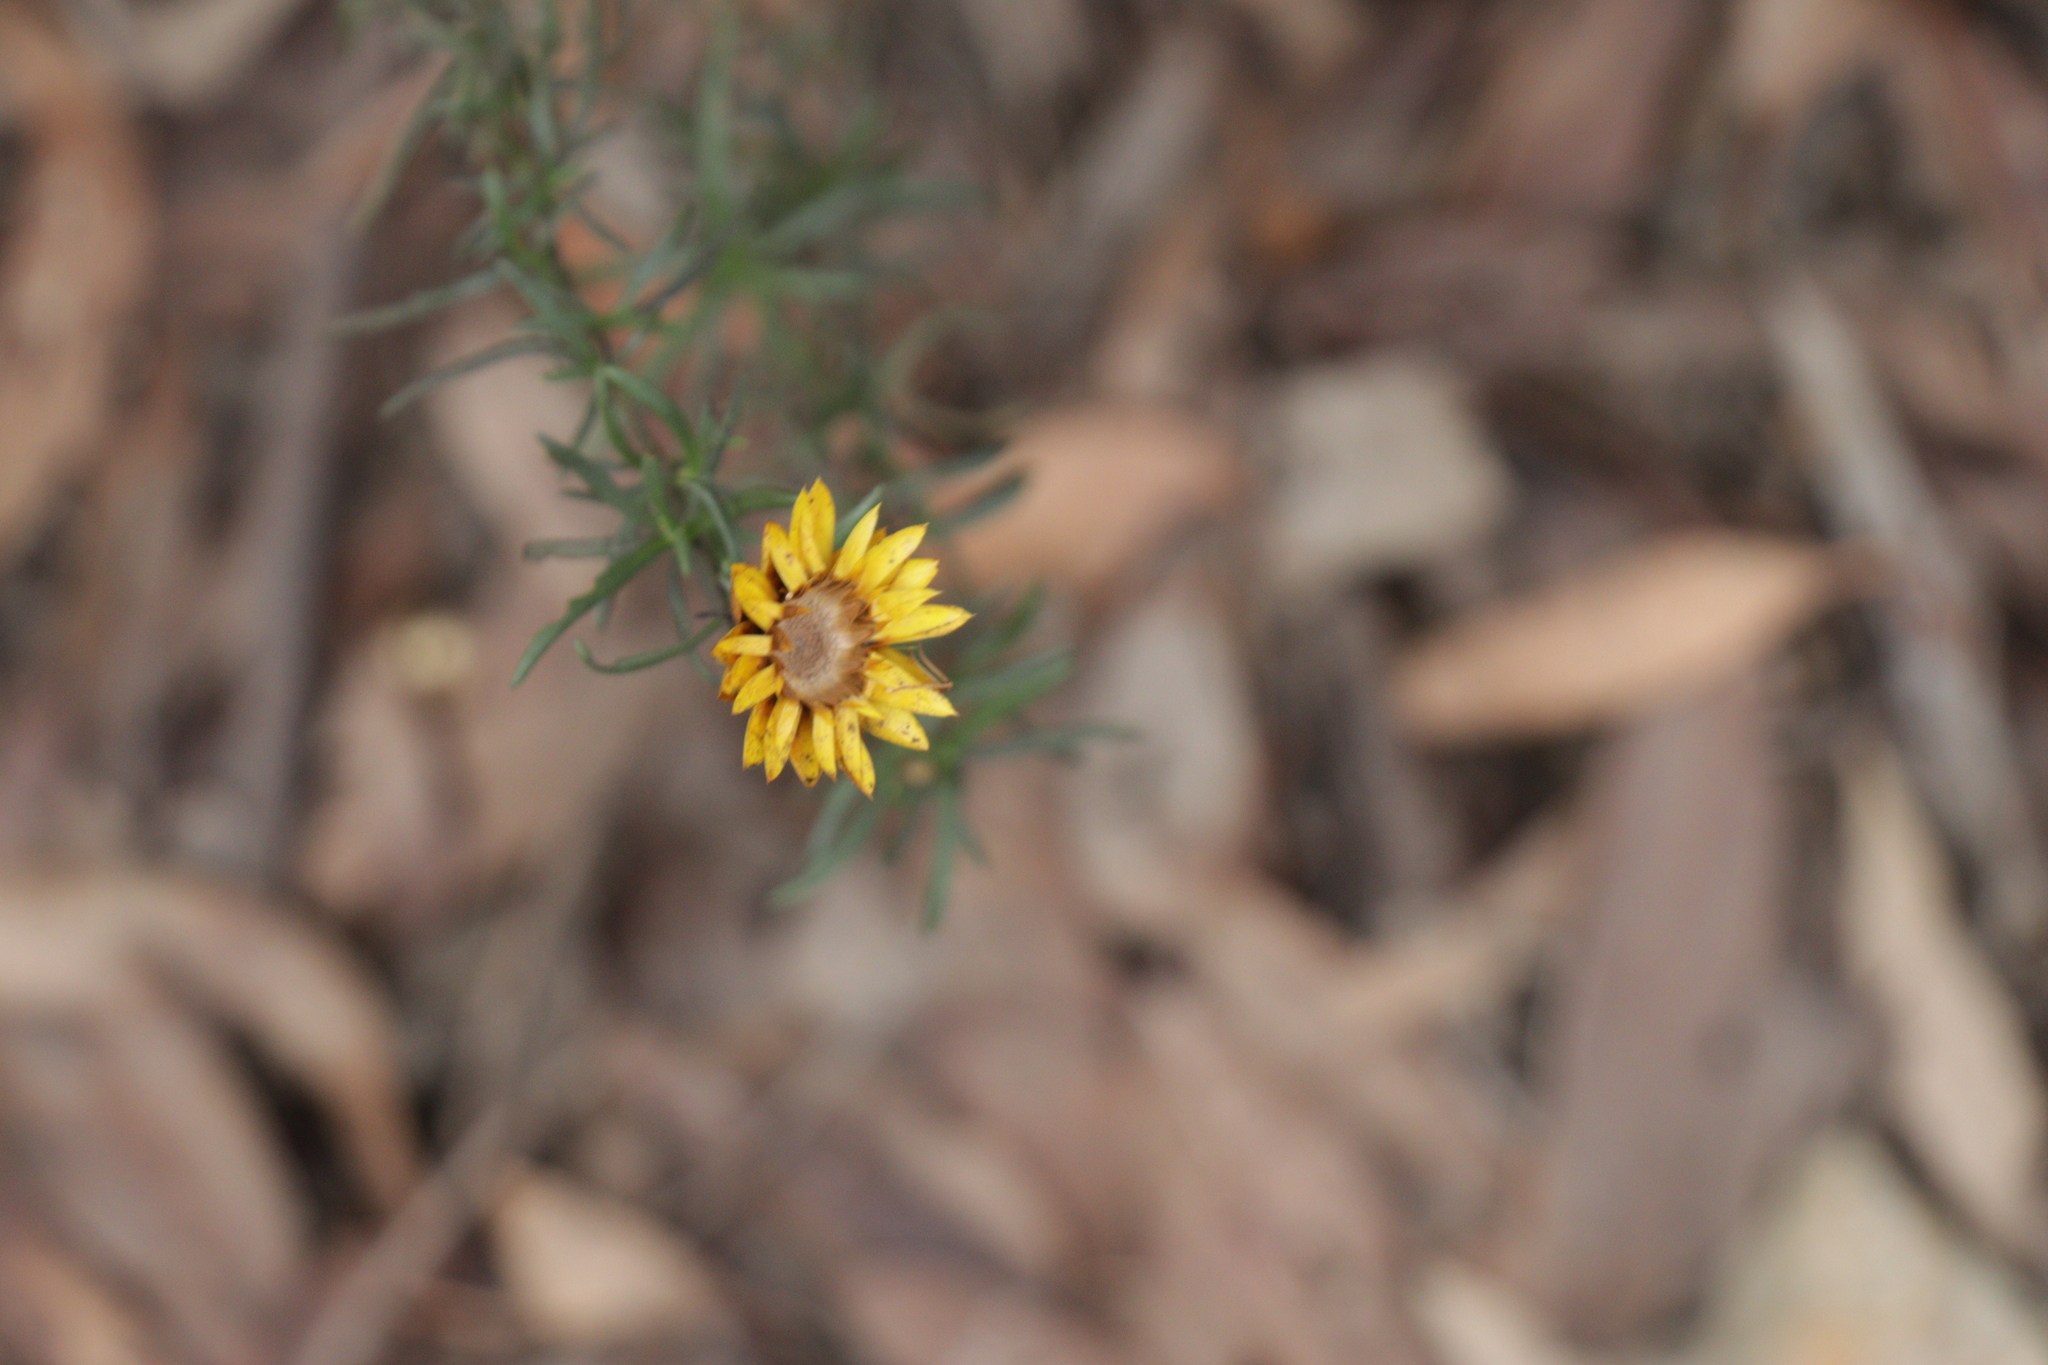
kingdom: Plantae
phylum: Tracheophyta
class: Magnoliopsida
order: Asterales
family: Asteraceae
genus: Xerochrysum
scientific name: Xerochrysum viscosum
